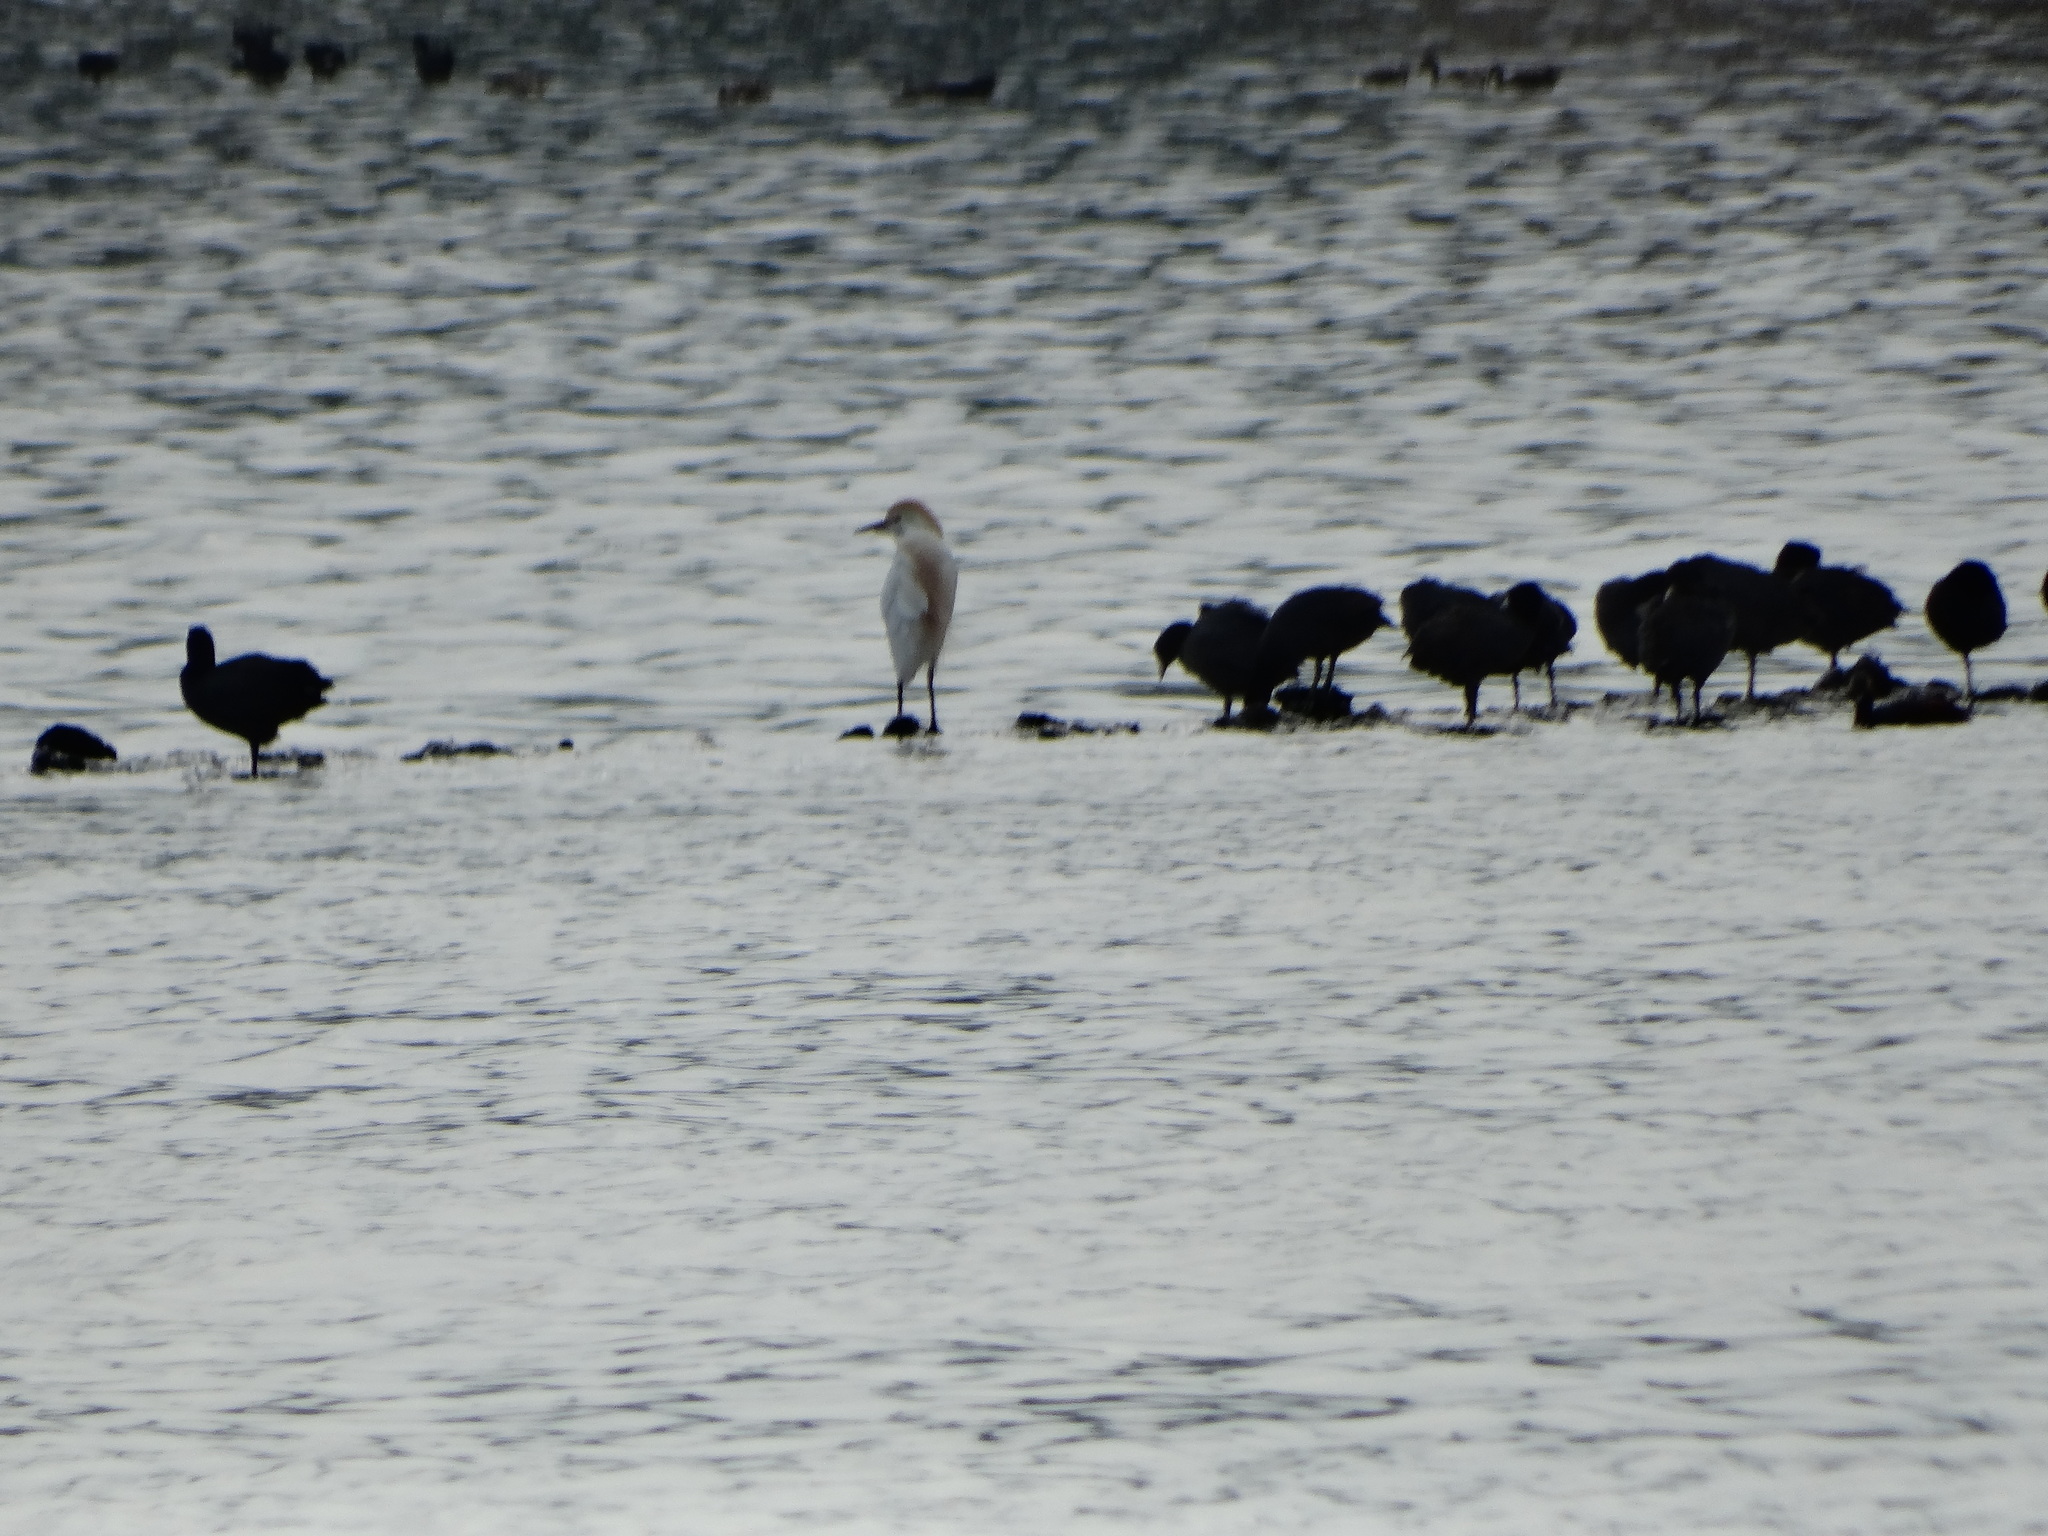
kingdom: Animalia
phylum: Chordata
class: Aves
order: Pelecaniformes
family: Ardeidae
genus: Bubulcus
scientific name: Bubulcus ibis
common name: Cattle egret
